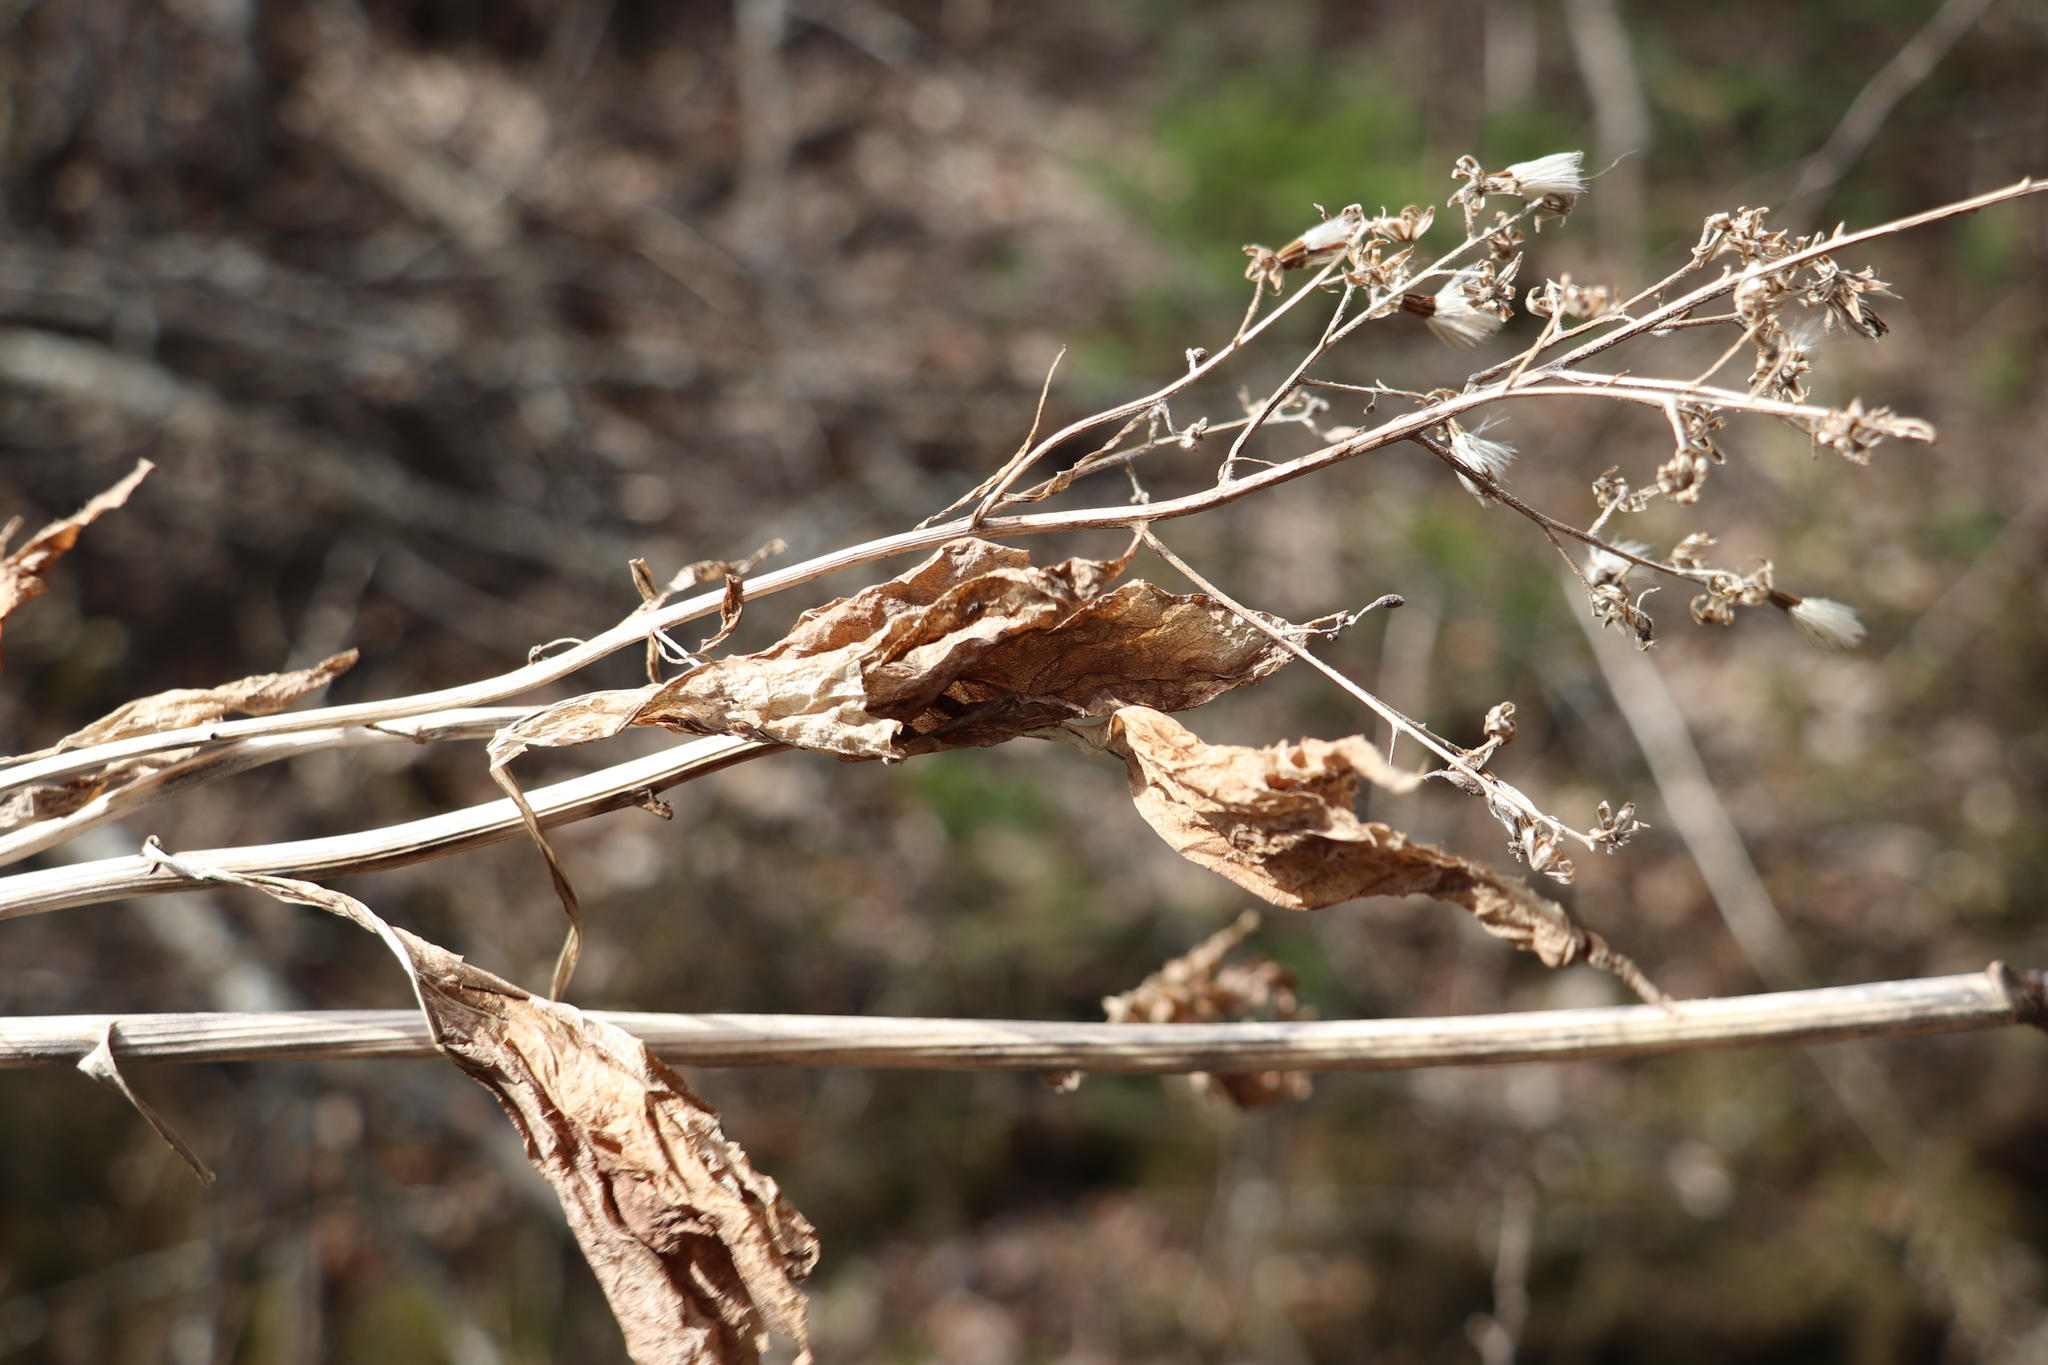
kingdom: Plantae
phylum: Tracheophyta
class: Magnoliopsida
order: Asterales
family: Asteraceae
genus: Parasenecio
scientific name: Parasenecio hastatus
